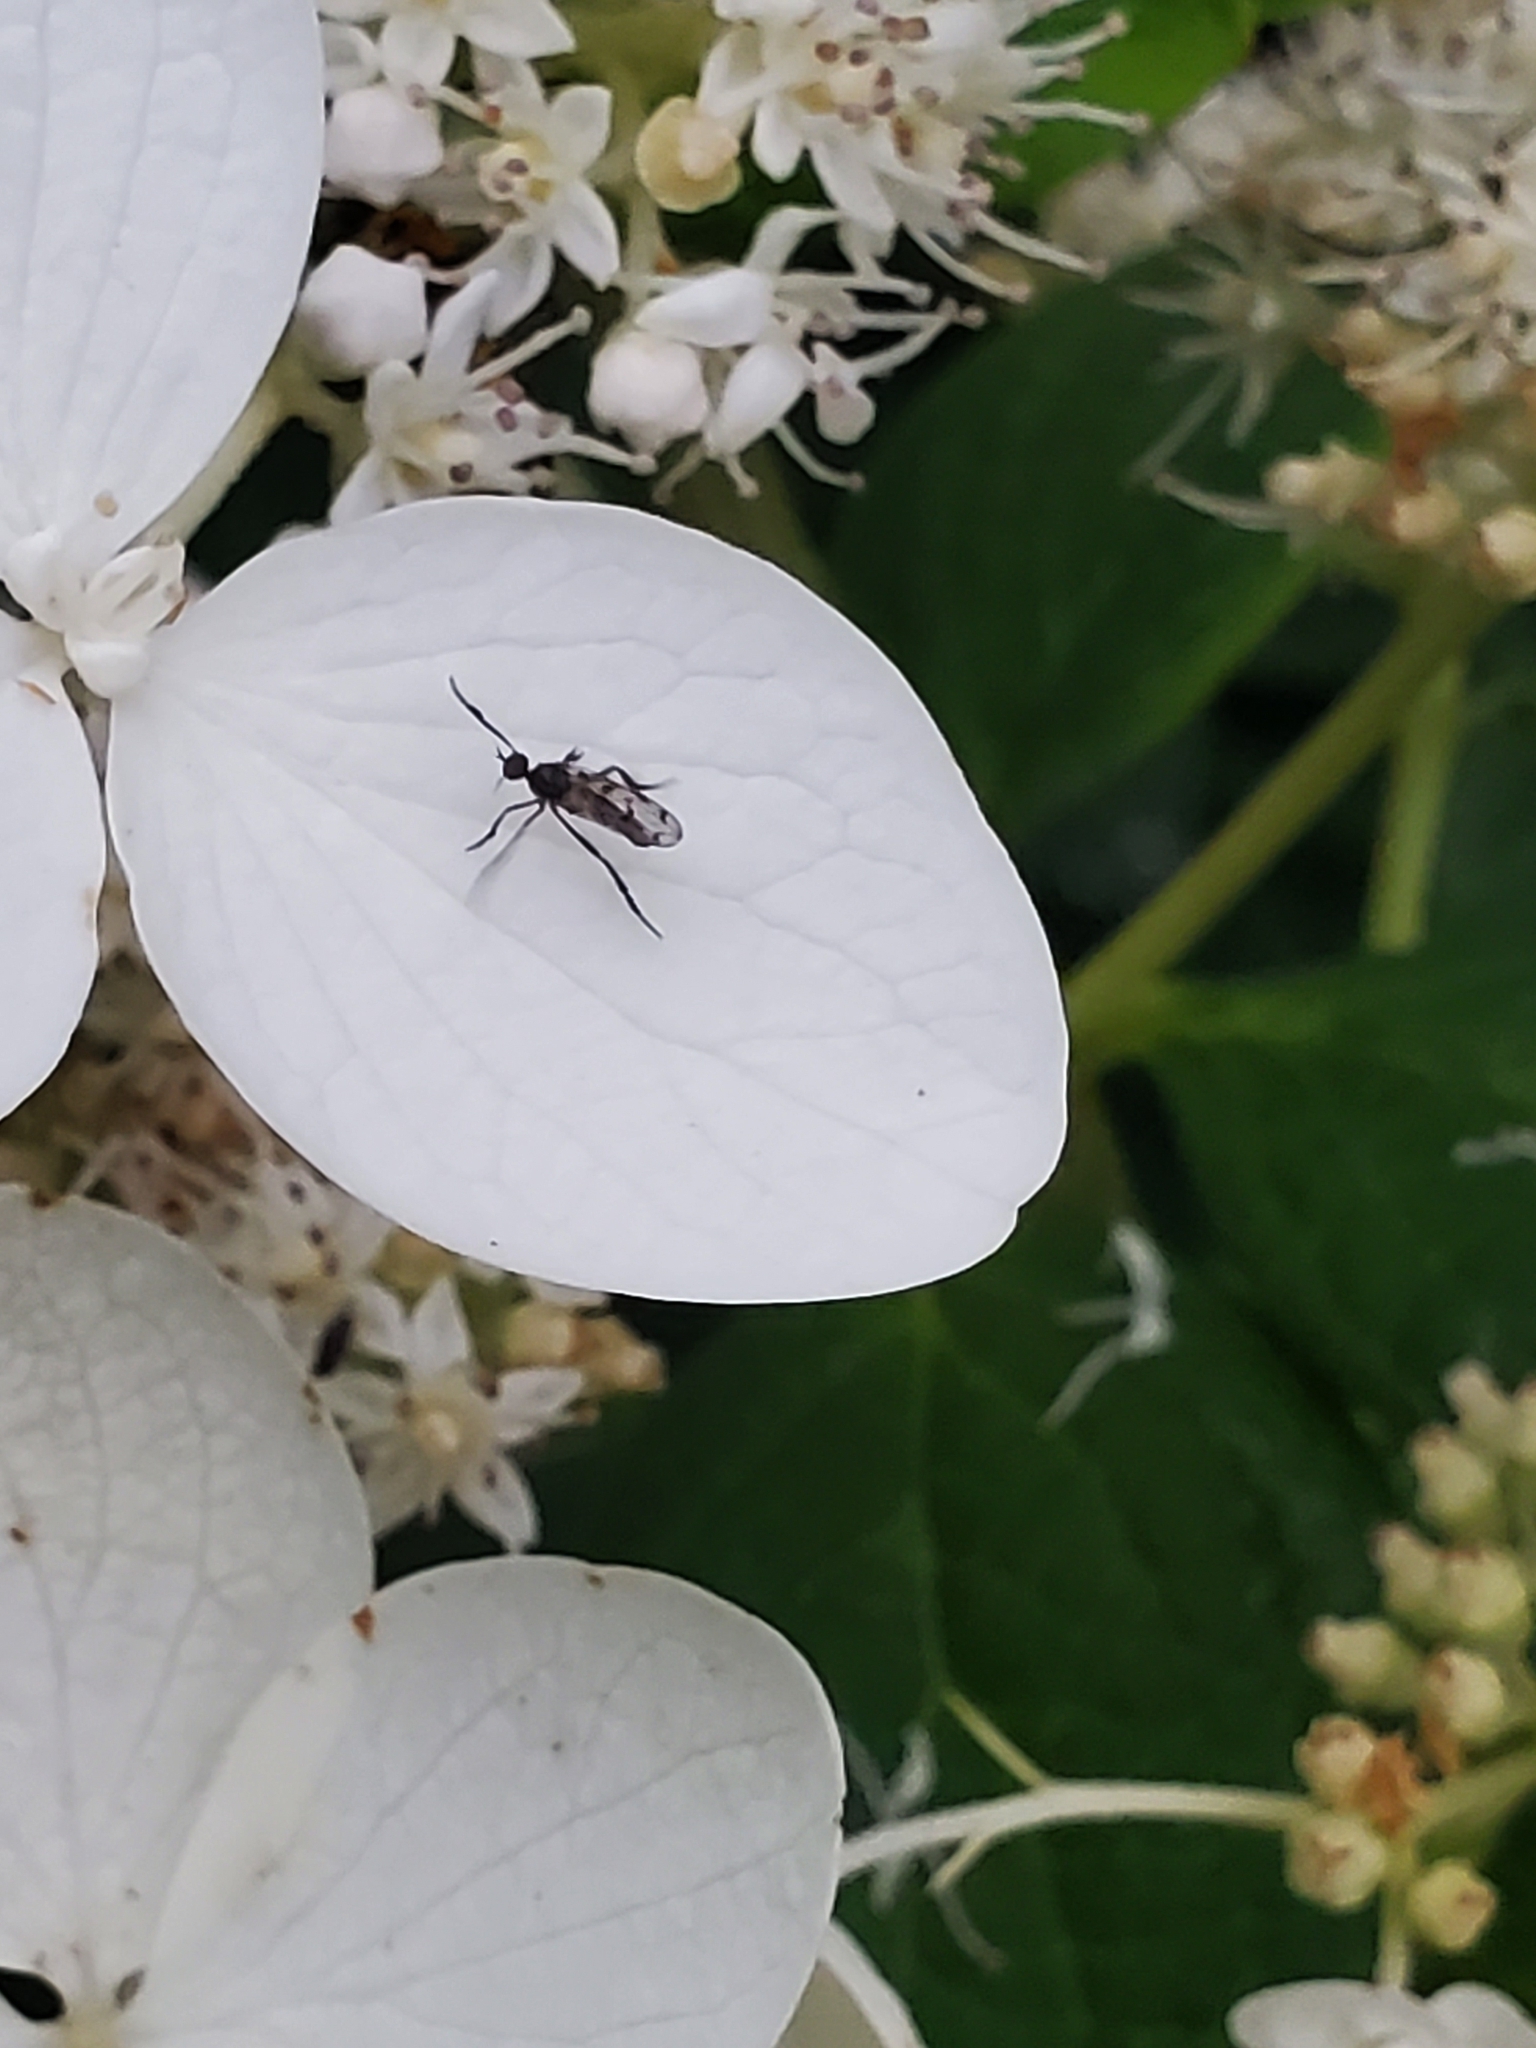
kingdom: Animalia
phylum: Arthropoda
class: Insecta
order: Diptera
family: Empididae
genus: Empis
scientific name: Empis clausa
